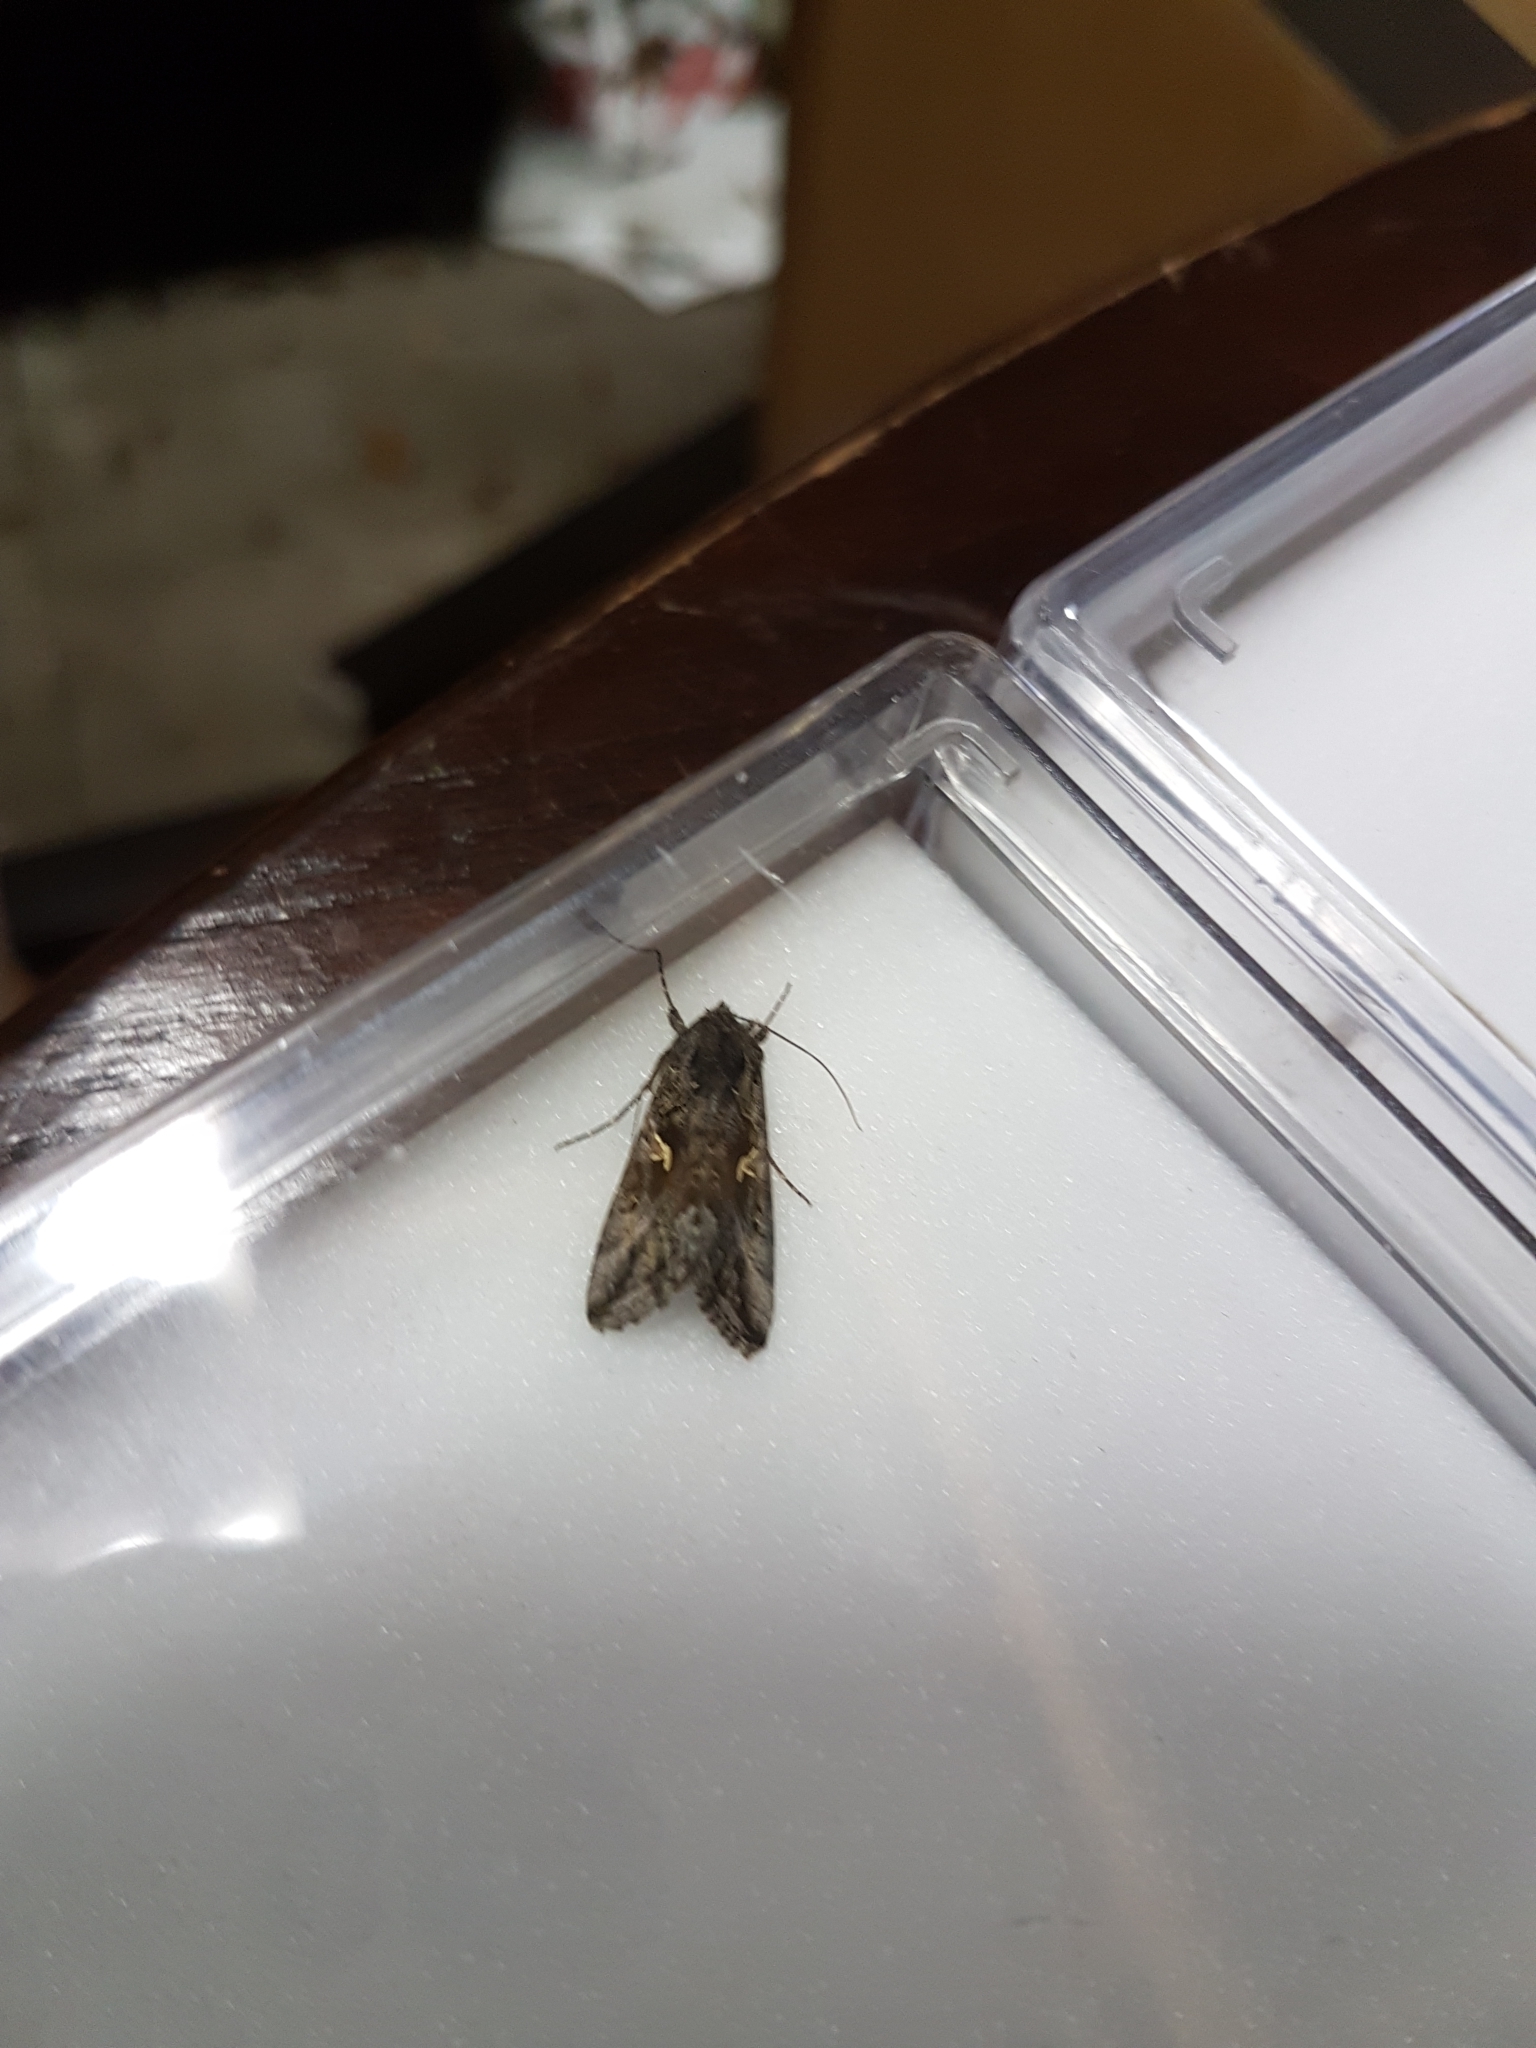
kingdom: Animalia
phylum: Arthropoda
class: Insecta
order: Lepidoptera
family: Noctuidae
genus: Autographa
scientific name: Autographa gamma
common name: Silver y
